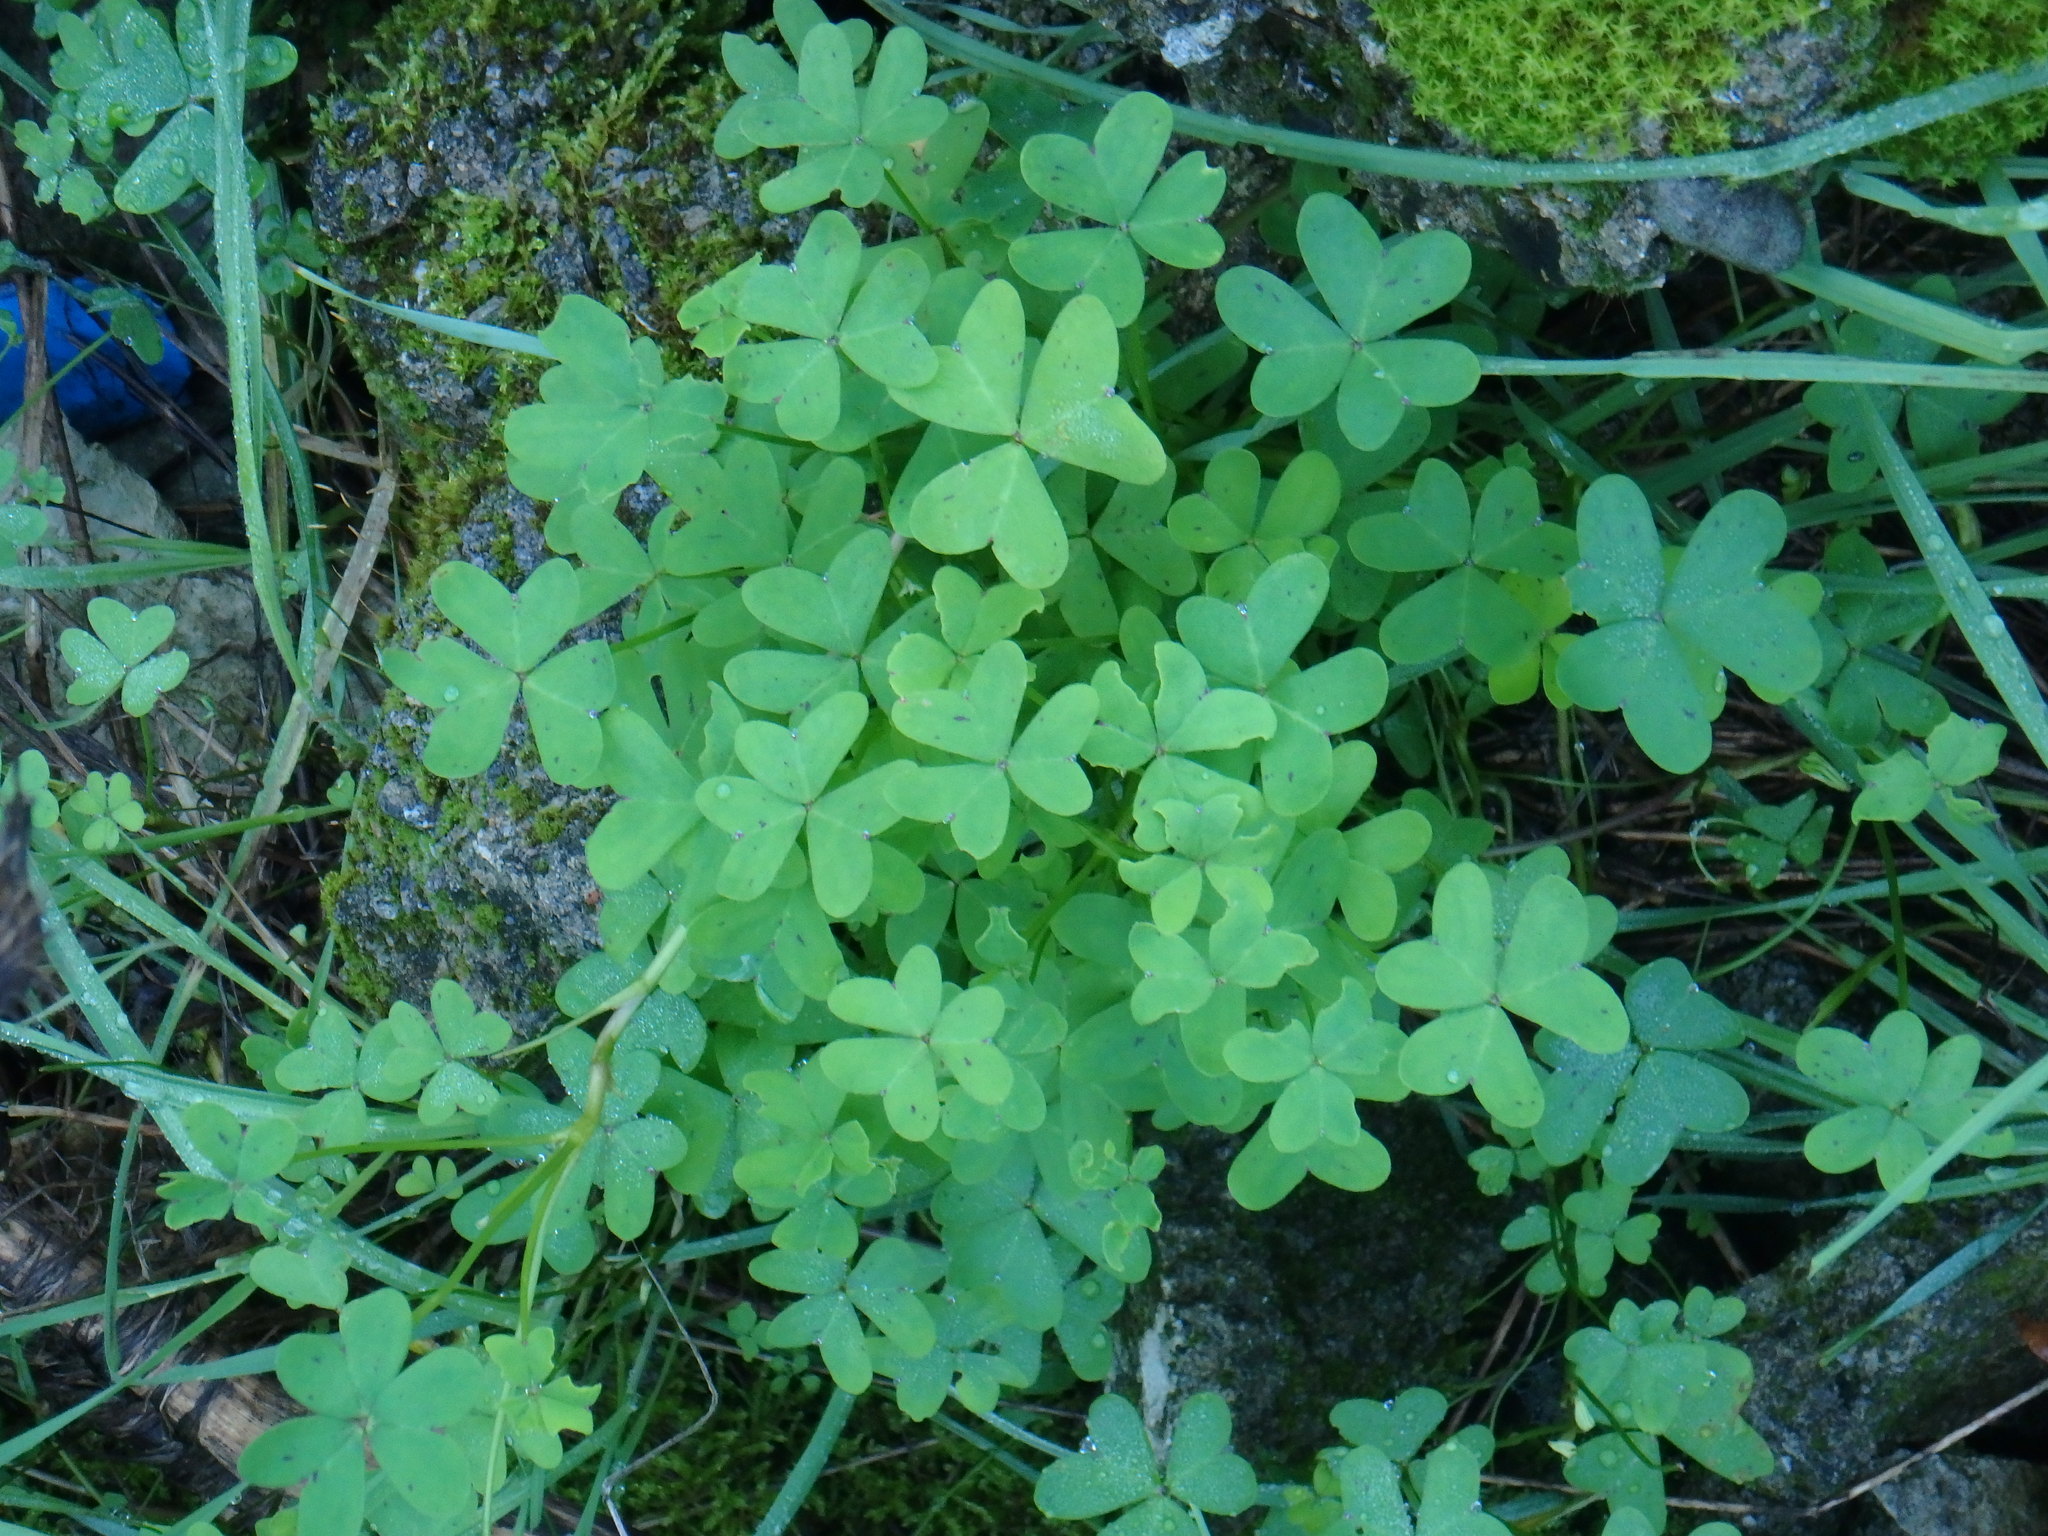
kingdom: Plantae
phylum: Tracheophyta
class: Magnoliopsida
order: Oxalidales
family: Oxalidaceae
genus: Oxalis
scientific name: Oxalis pes-caprae
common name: Bermuda-buttercup
